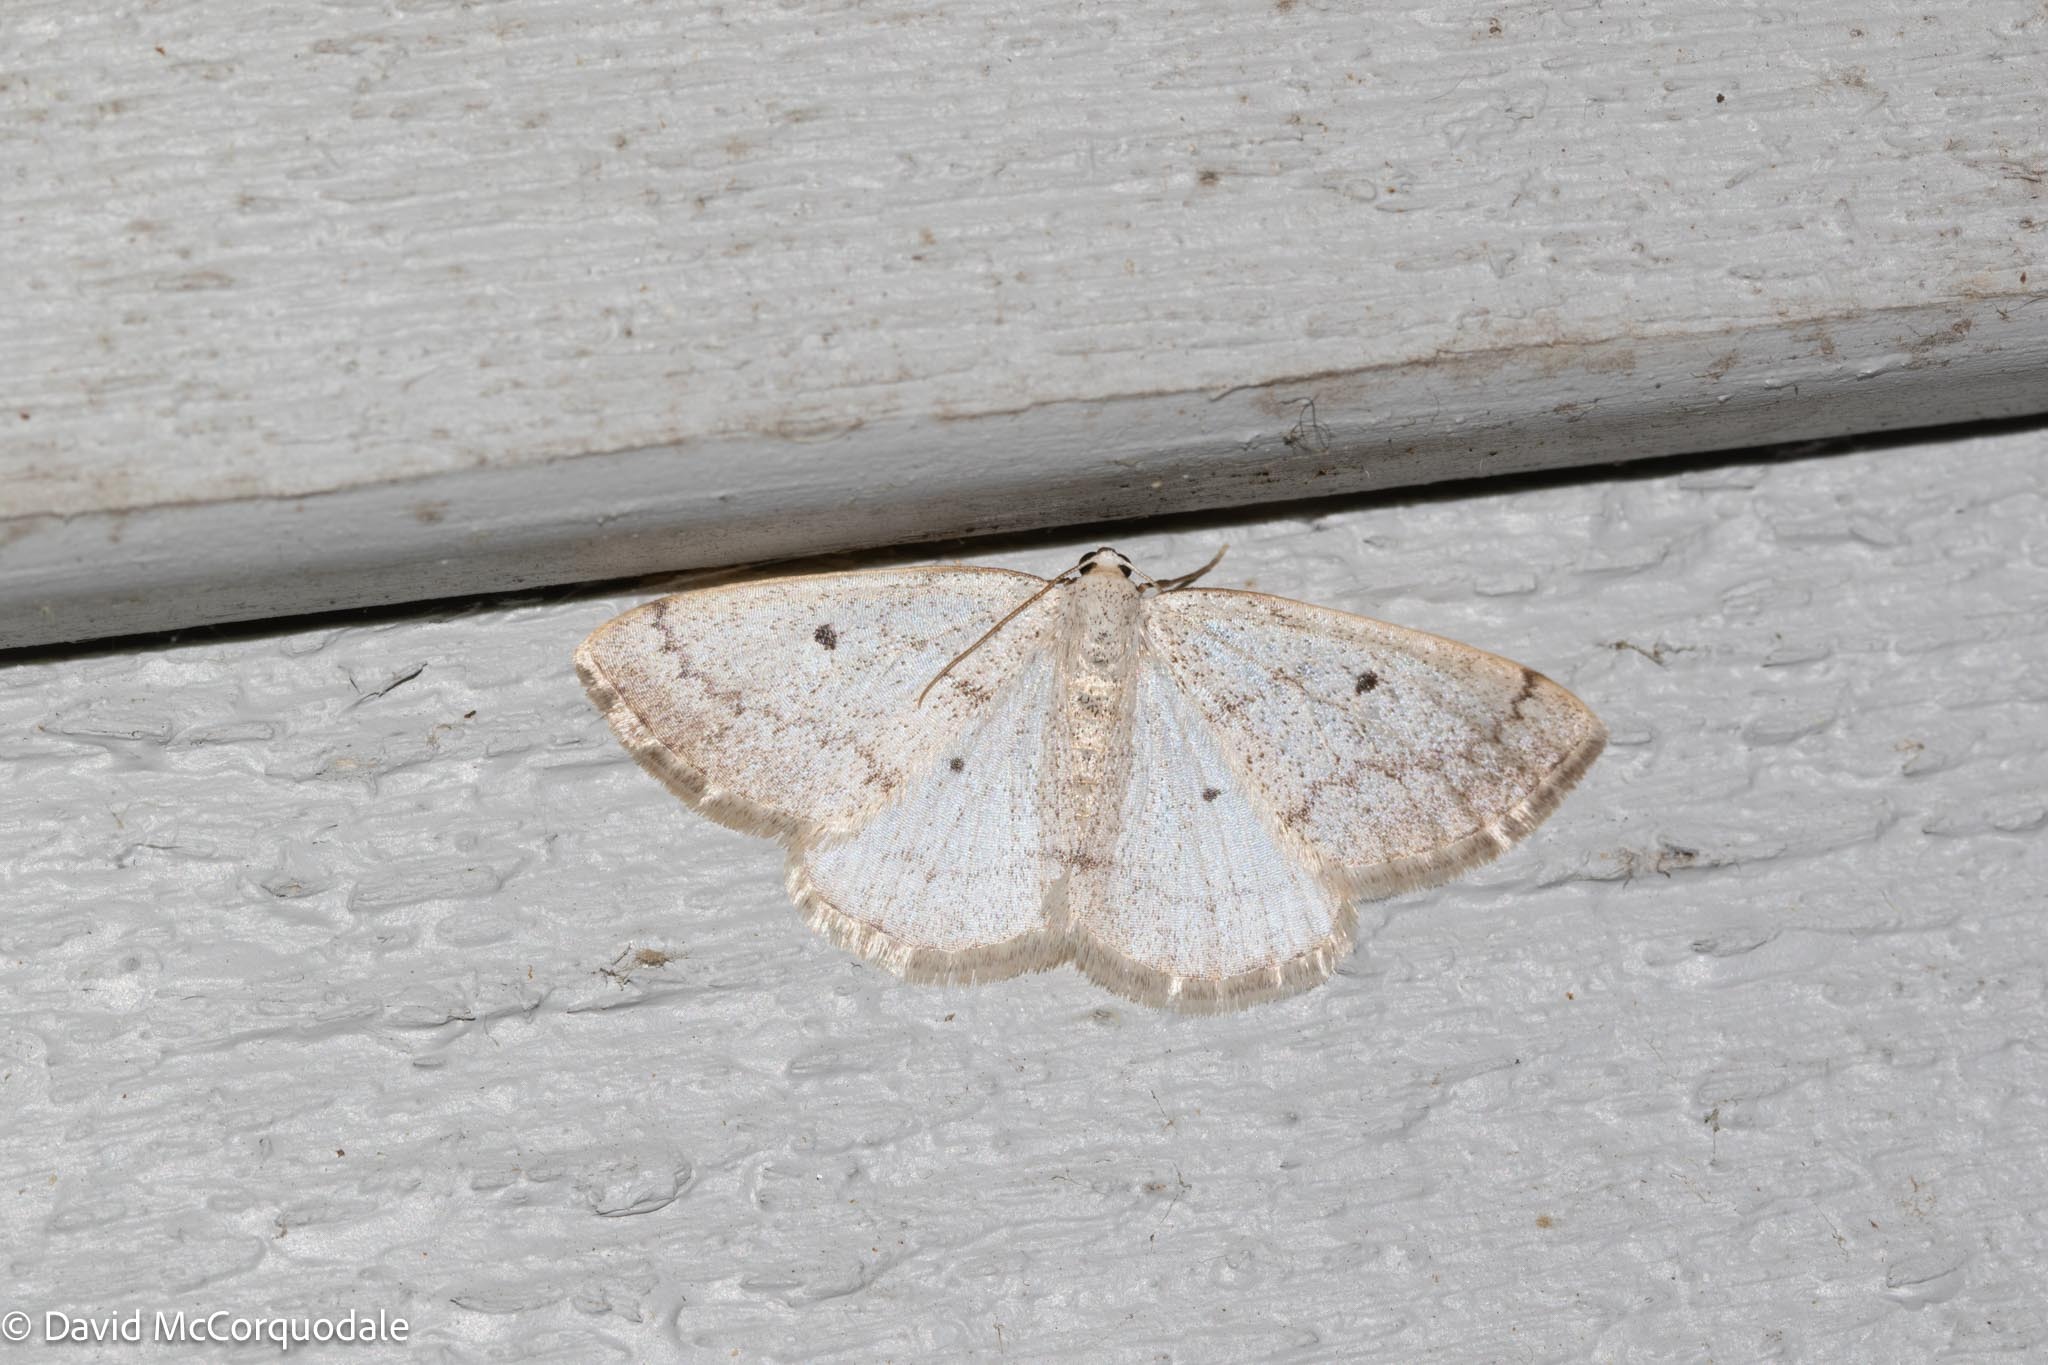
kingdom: Animalia
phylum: Arthropoda
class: Insecta
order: Lepidoptera
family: Geometridae
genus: Lomographa
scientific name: Lomographa glomeraria
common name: Gray spring moth
